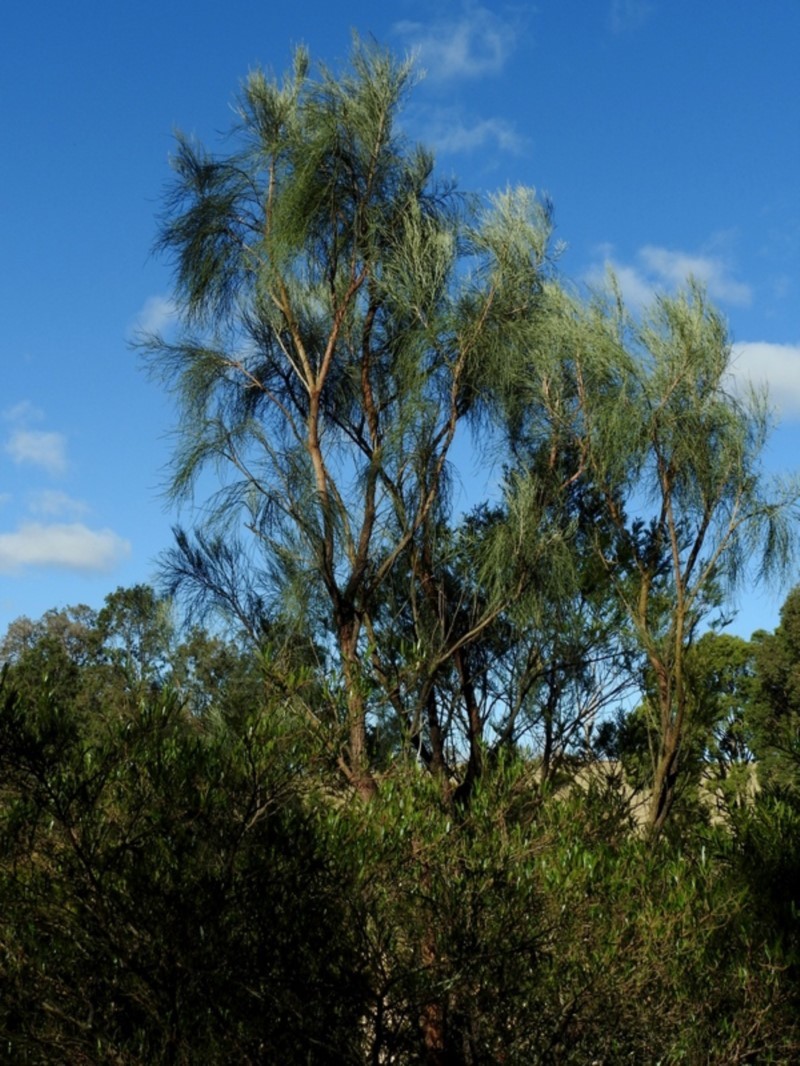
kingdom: Plantae
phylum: Tracheophyta
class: Magnoliopsida
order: Fabales
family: Fabaceae
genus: Jacksonia
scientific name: Jacksonia scoparia
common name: Dogwood
